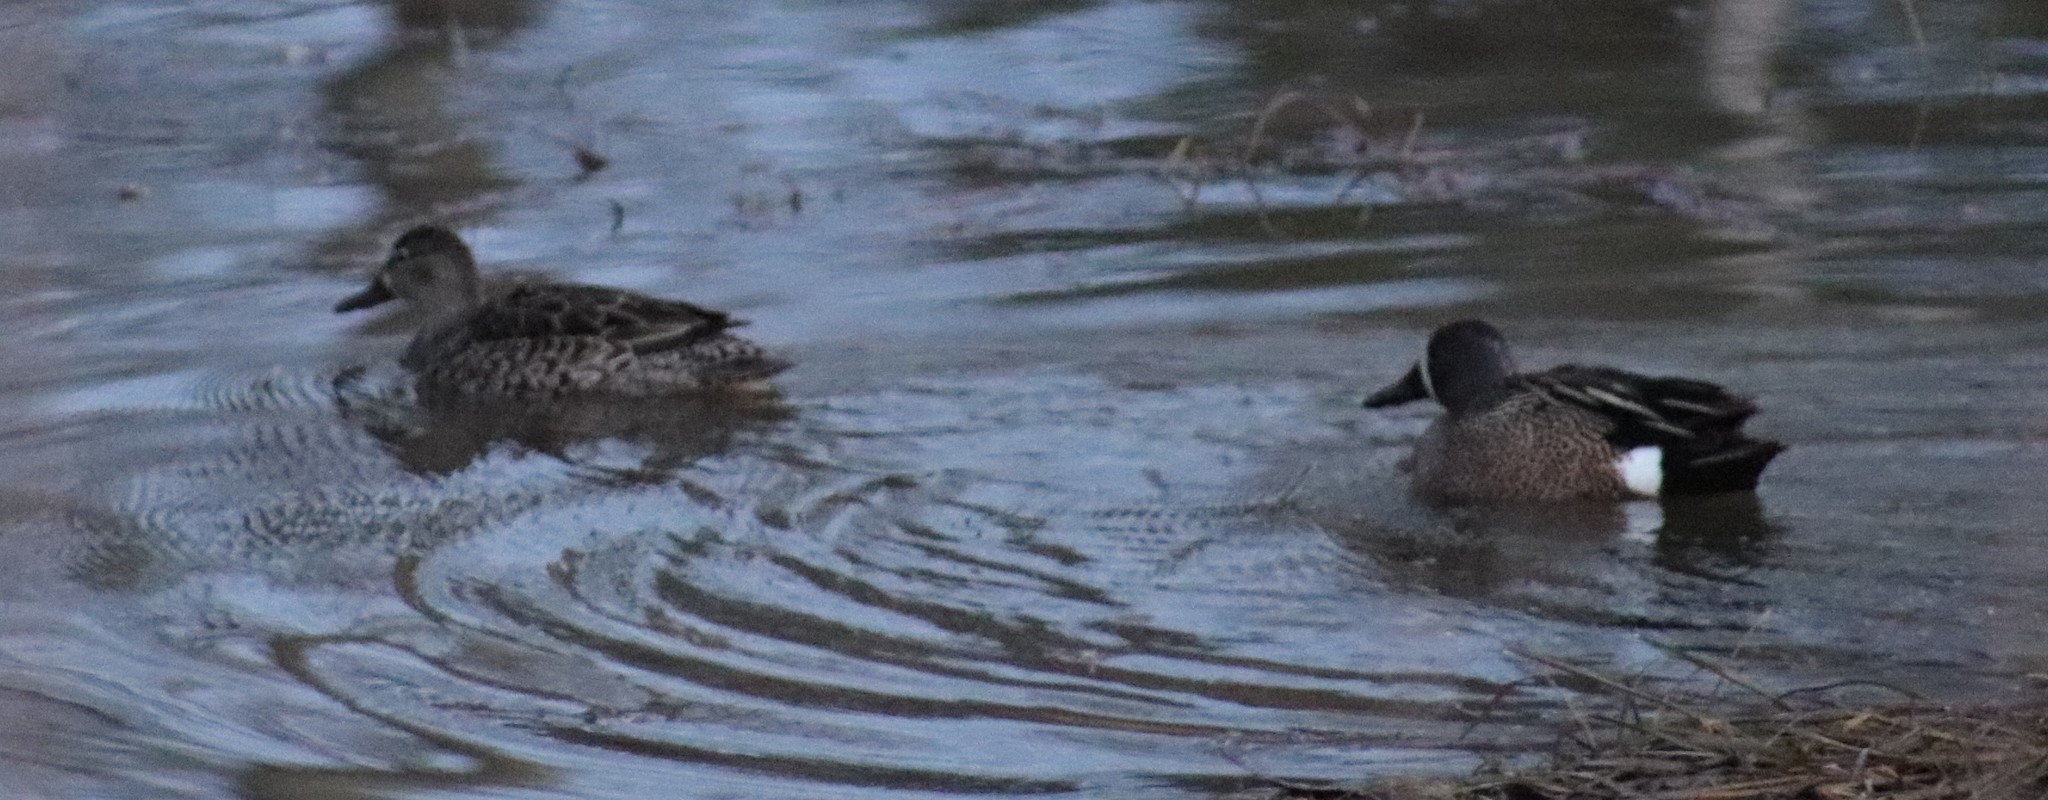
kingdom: Animalia
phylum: Chordata
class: Aves
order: Anseriformes
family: Anatidae
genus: Spatula
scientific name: Spatula discors
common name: Blue-winged teal
